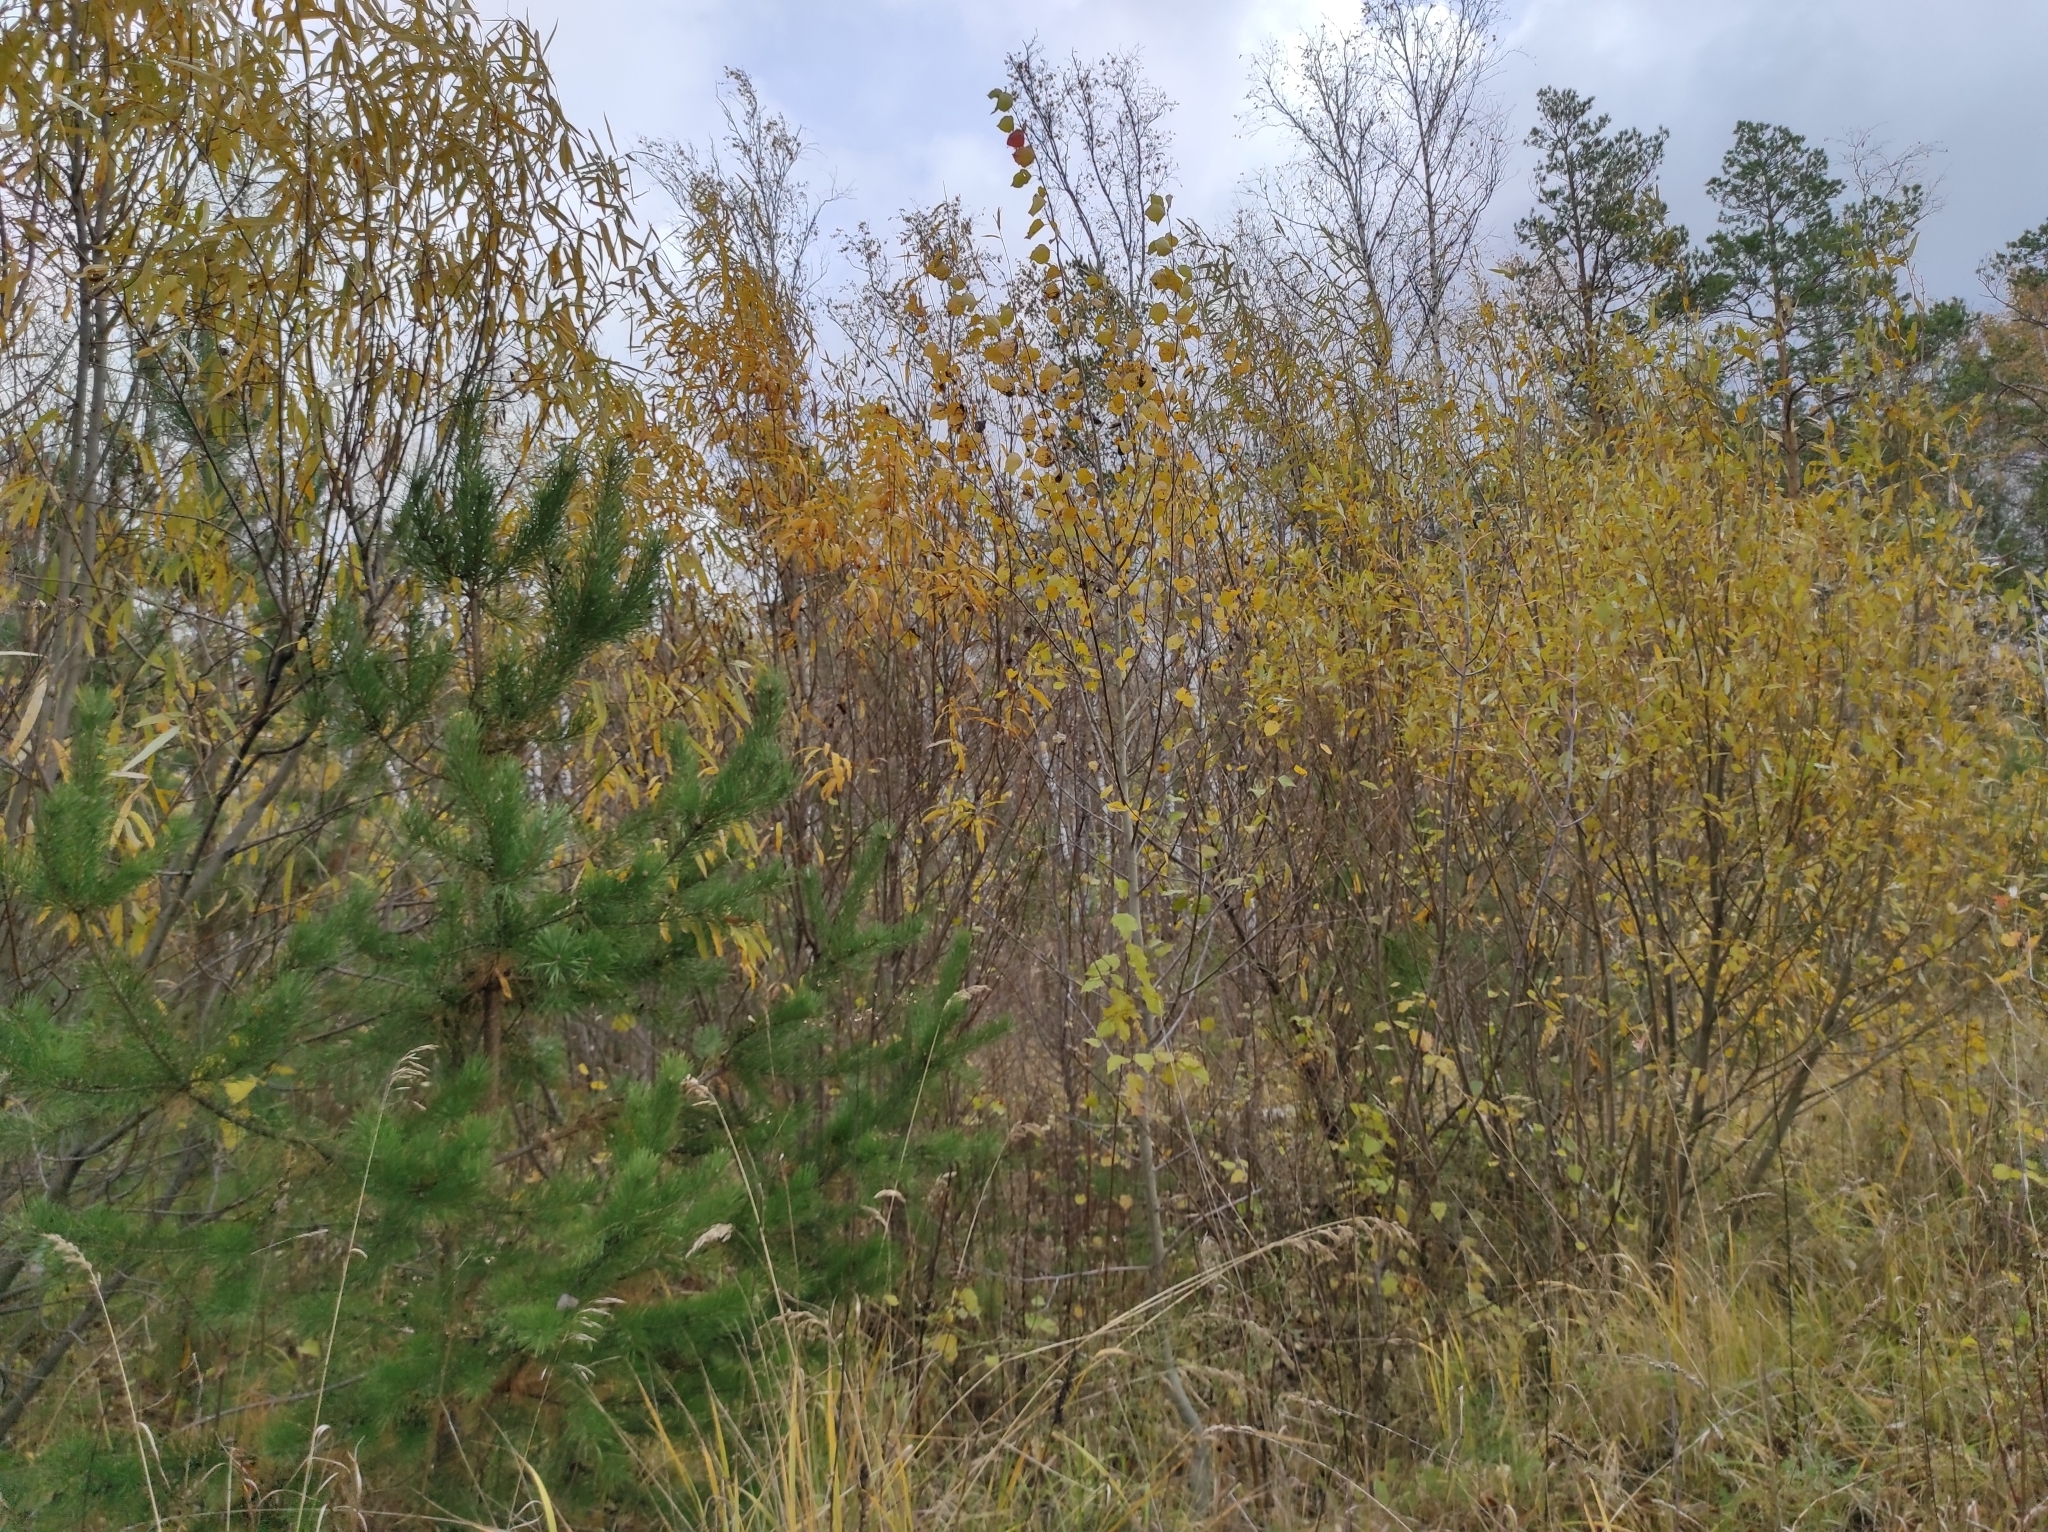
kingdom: Plantae
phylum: Tracheophyta
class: Pinopsida
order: Pinales
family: Pinaceae
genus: Pinus
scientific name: Pinus sylvestris
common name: Scots pine
